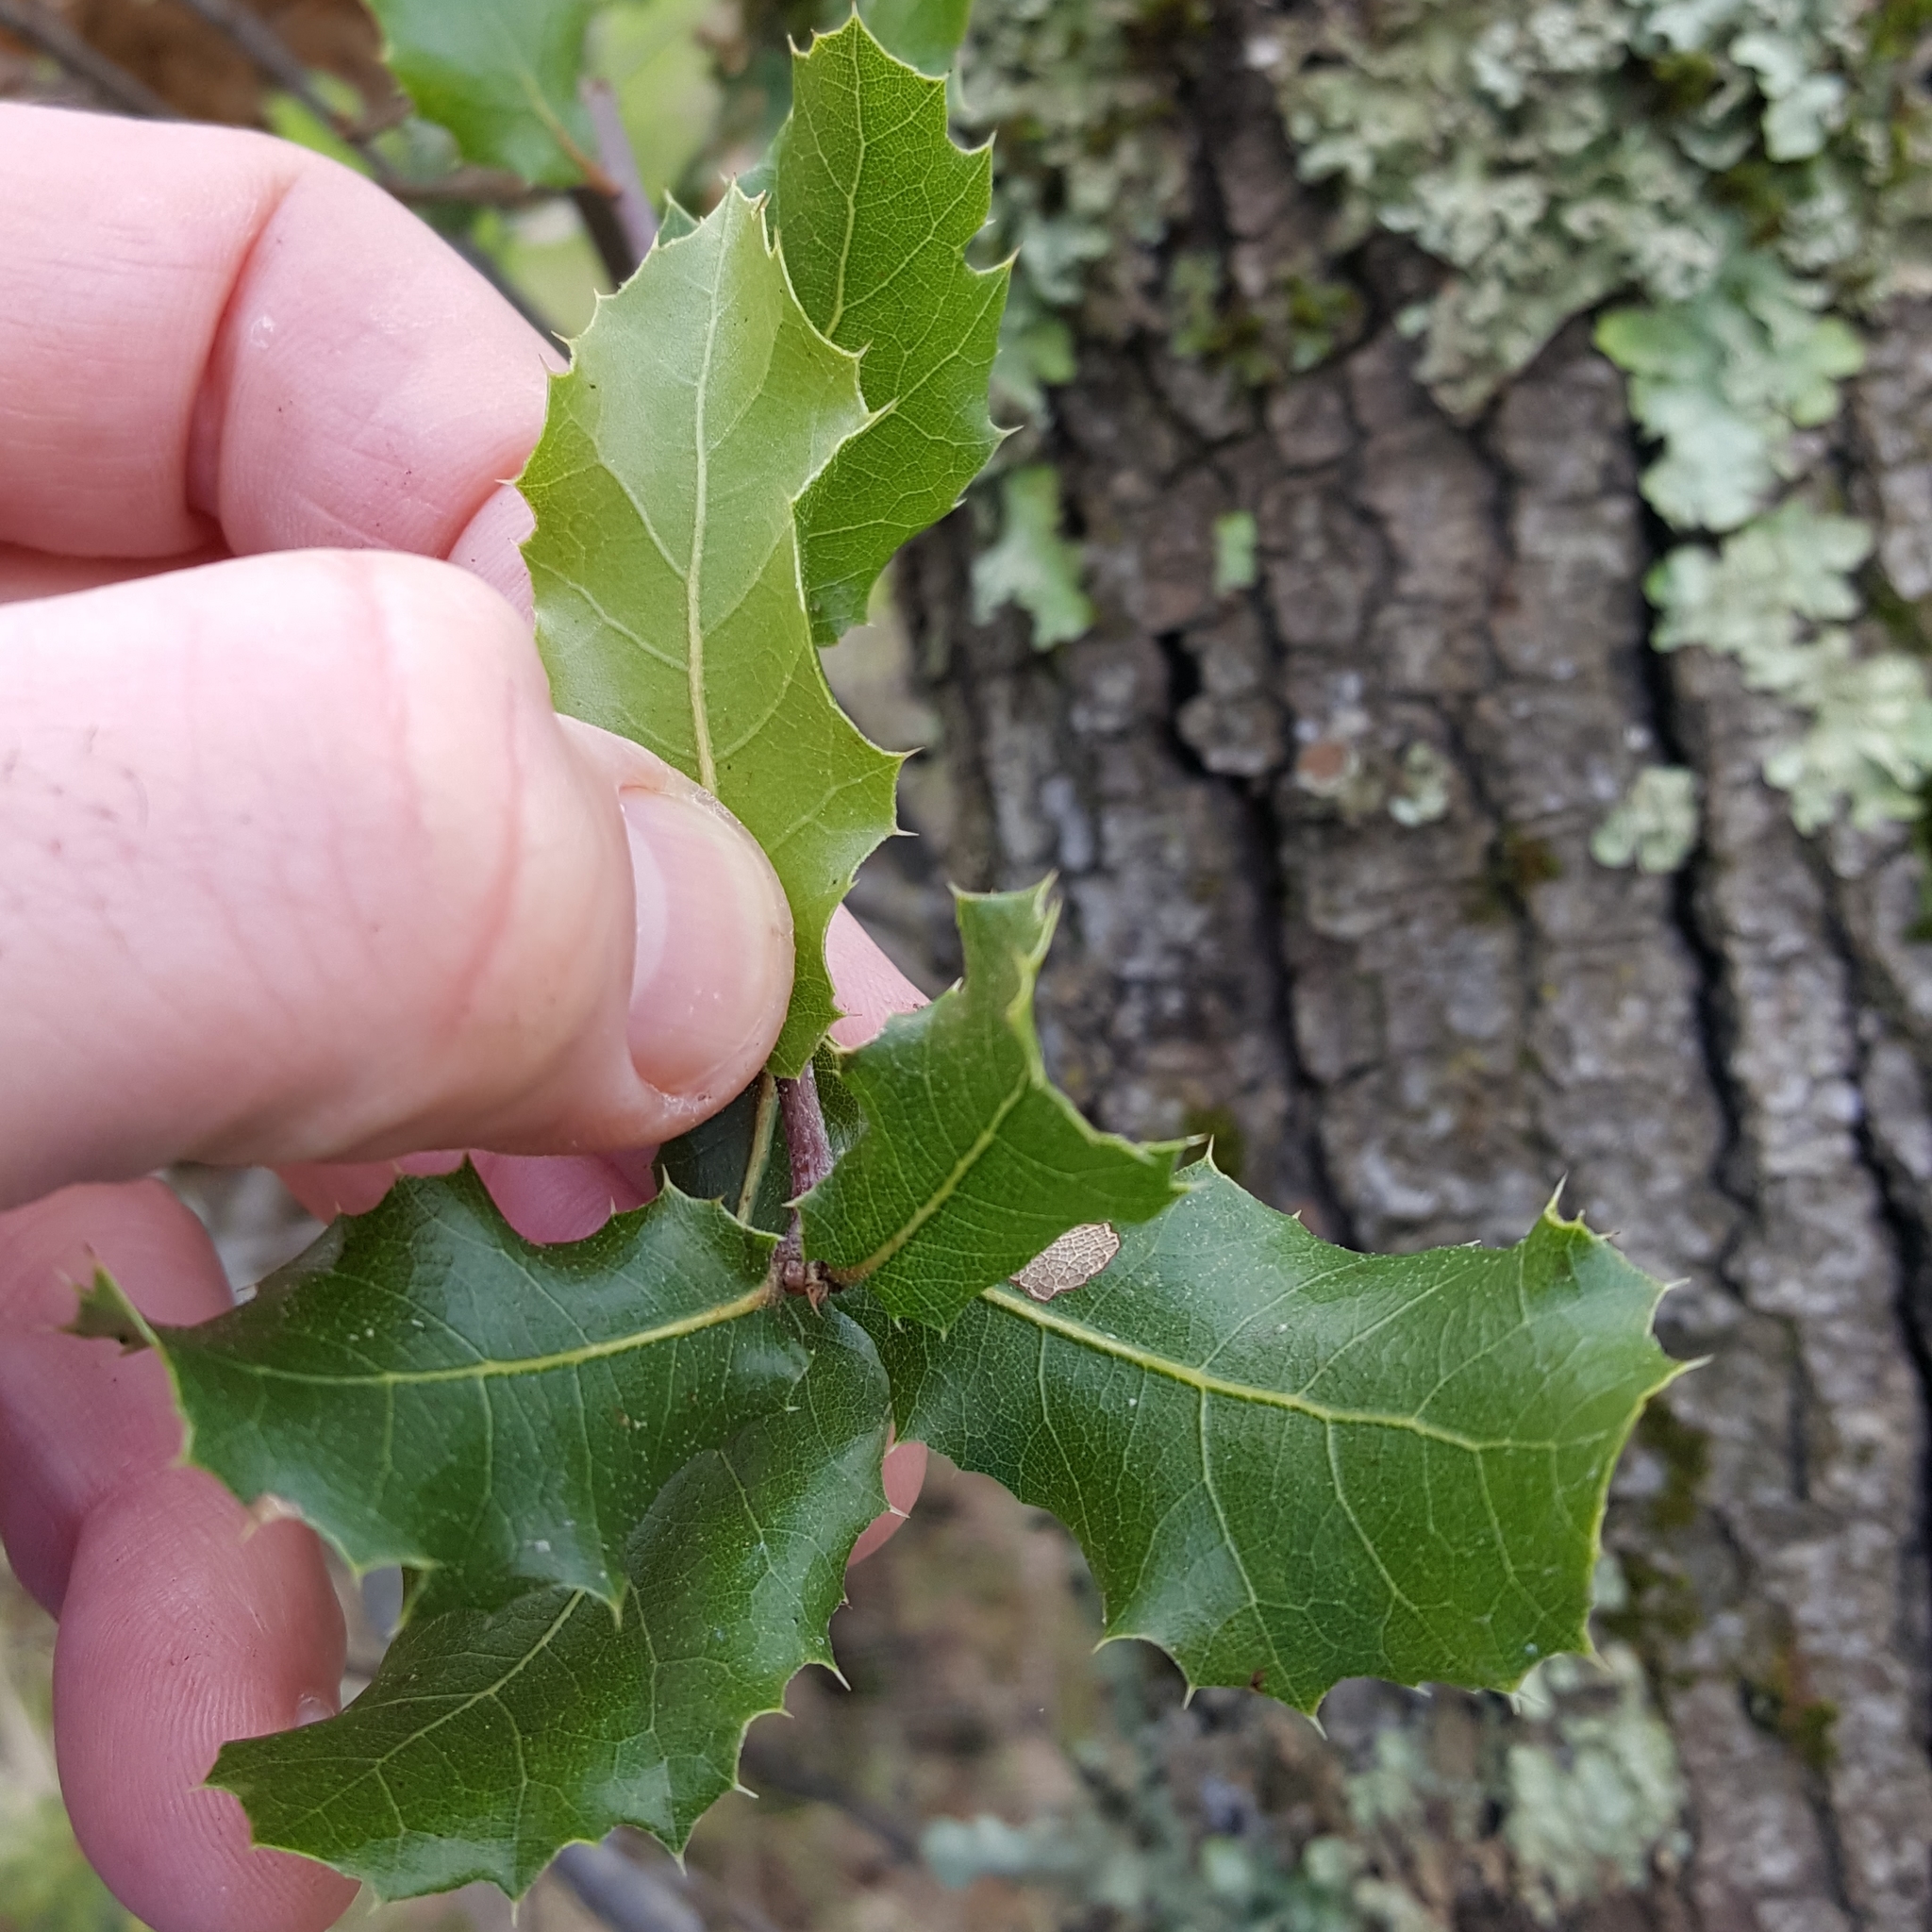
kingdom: Plantae
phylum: Tracheophyta
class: Magnoliopsida
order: Fagales
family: Fagaceae
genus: Quercus
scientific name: Quercus wislizeni
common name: Interior live oak
